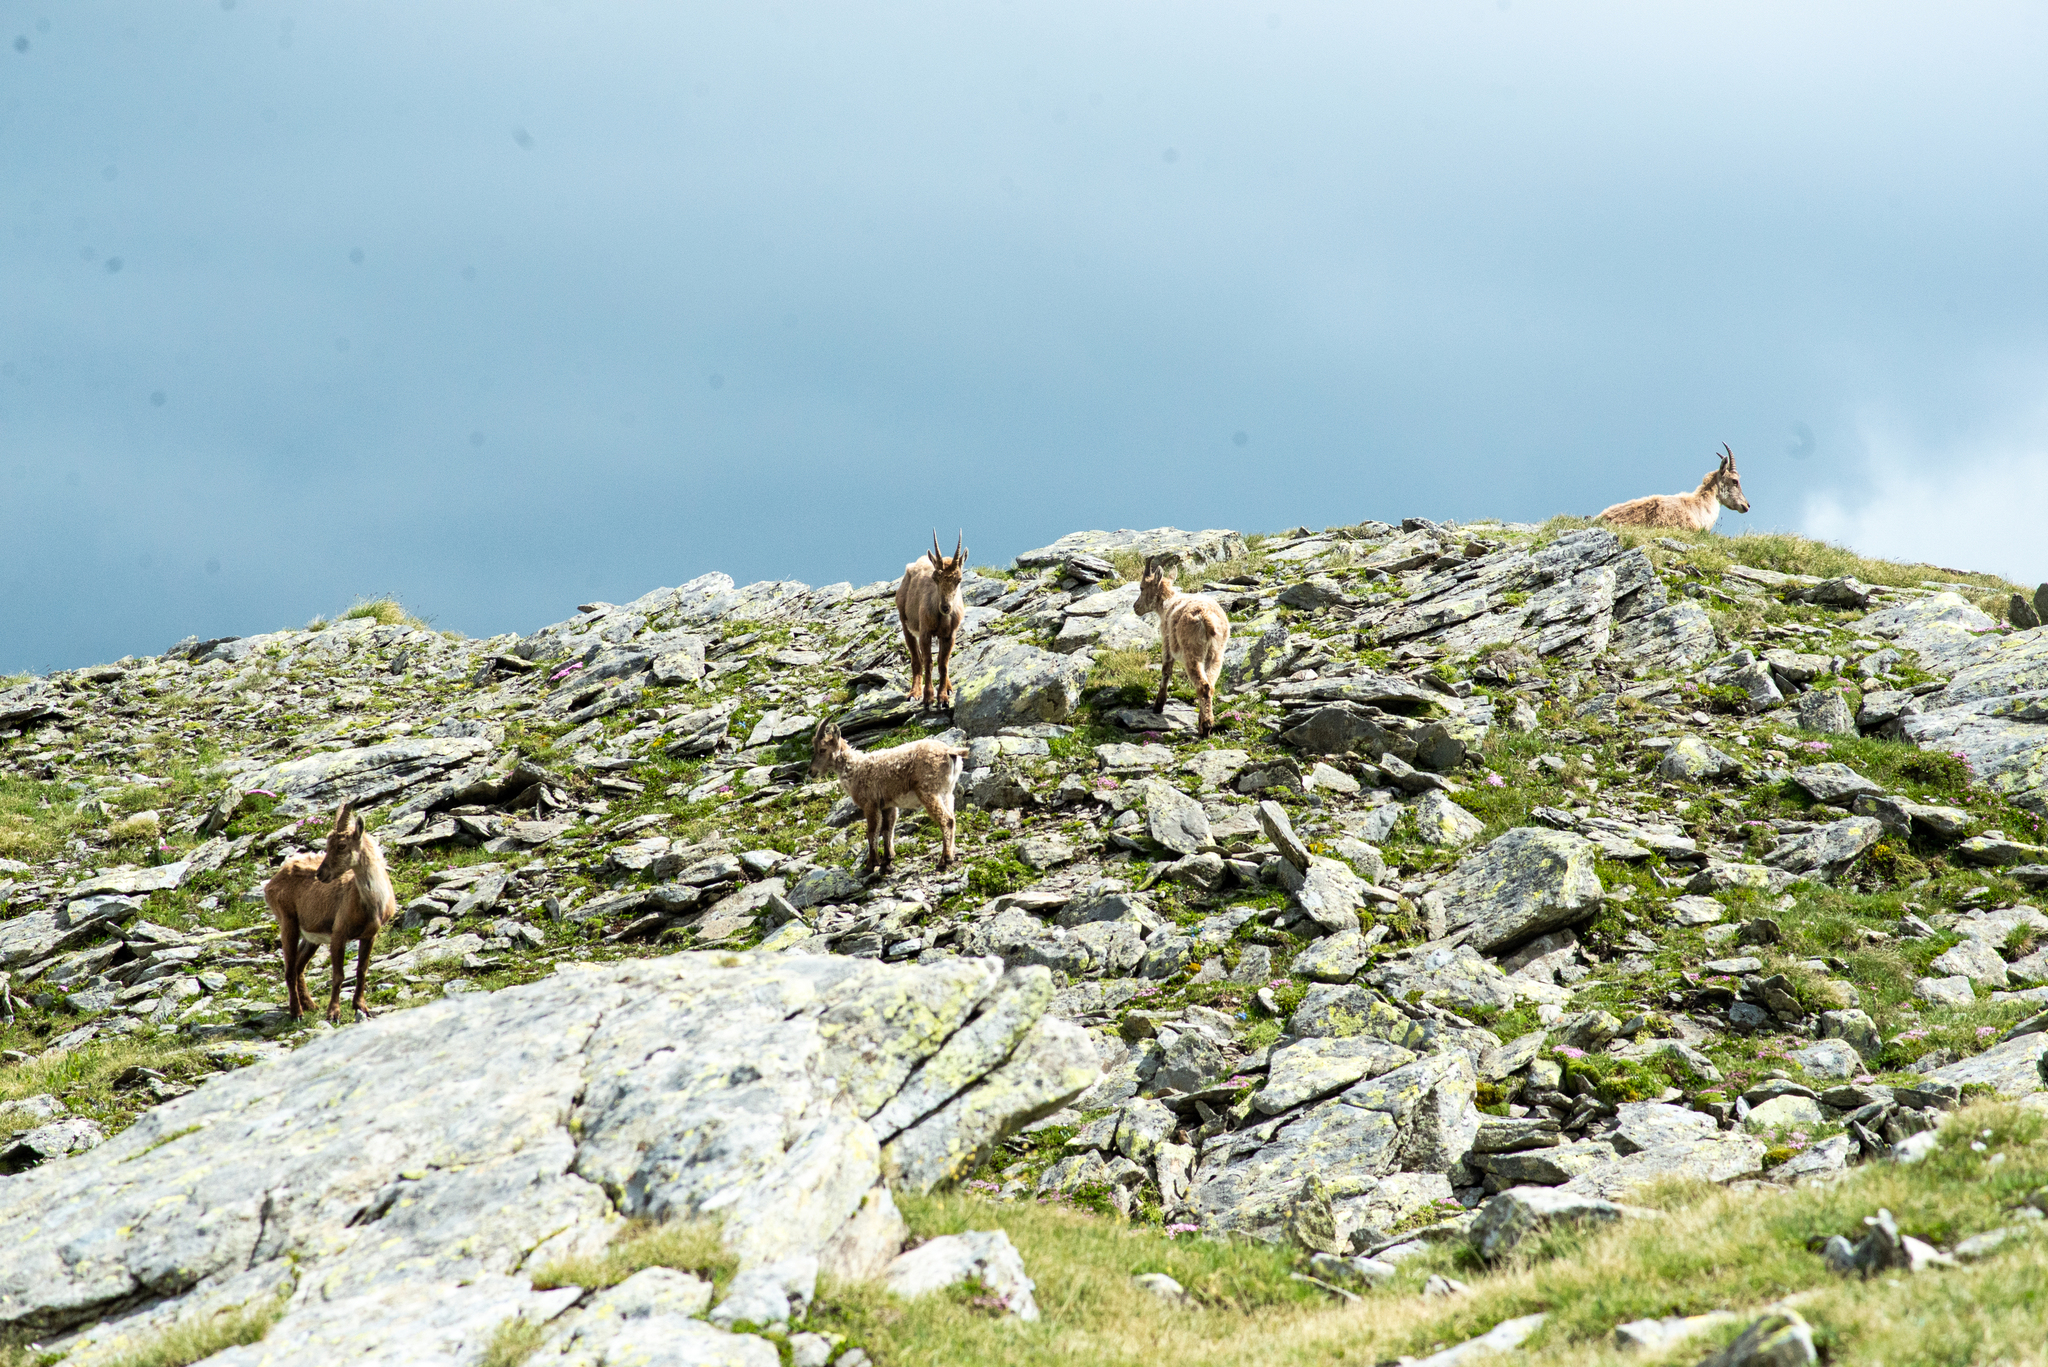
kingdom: Animalia
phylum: Chordata
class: Mammalia
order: Artiodactyla
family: Bovidae
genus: Capra
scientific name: Capra ibex
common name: Alpine ibex
